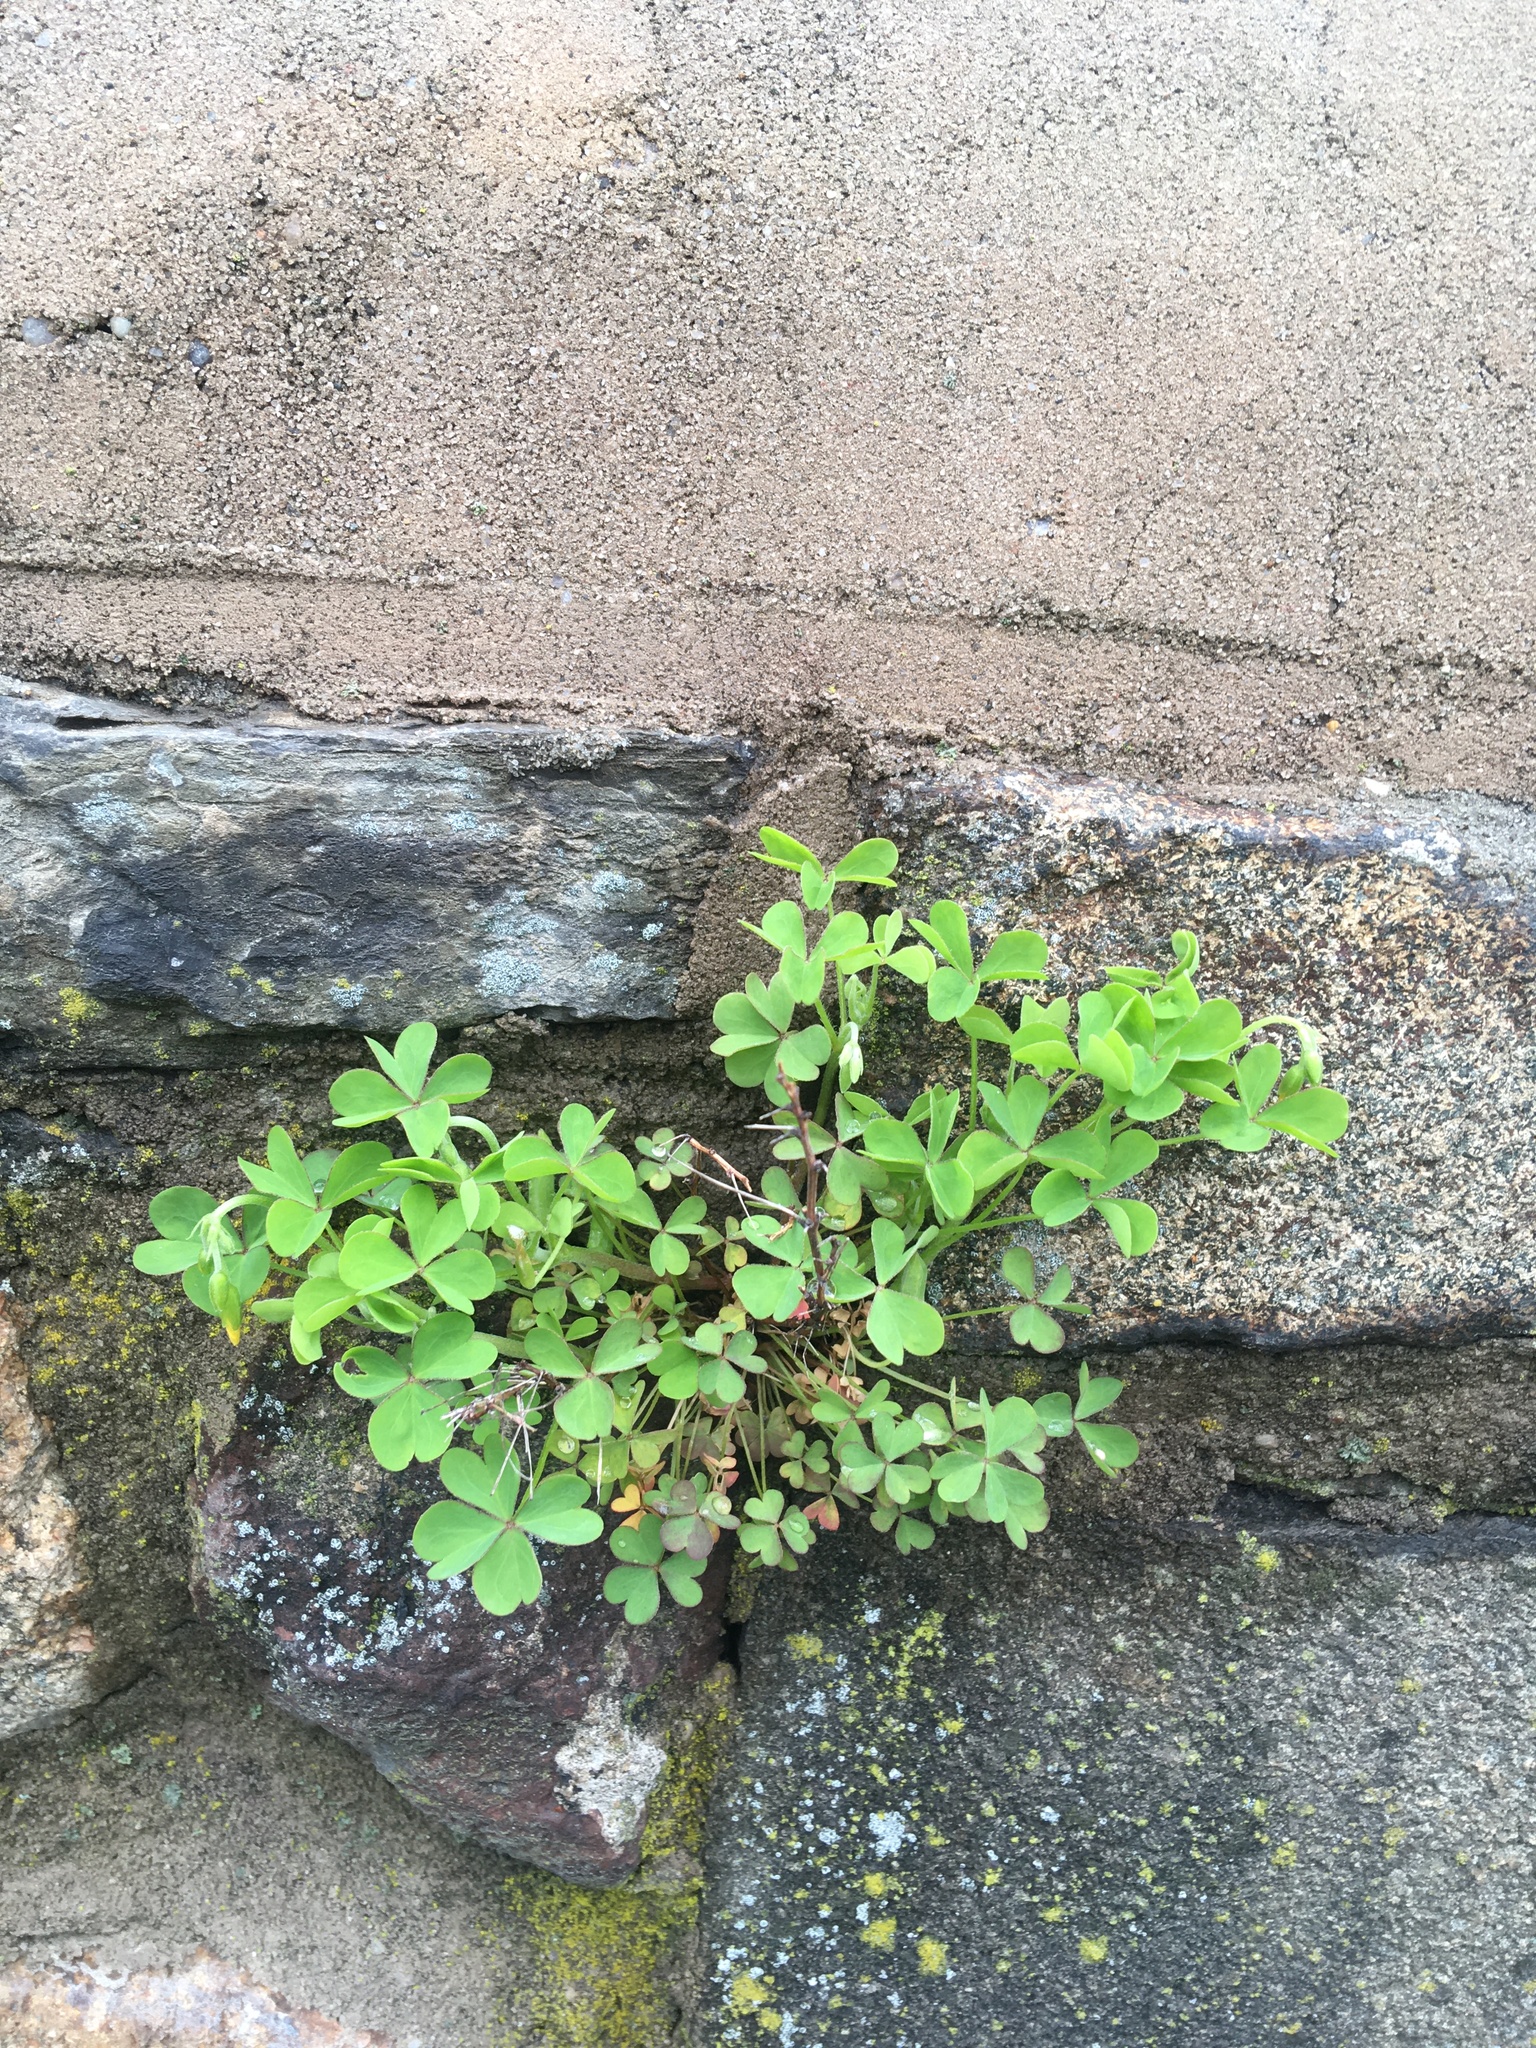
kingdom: Plantae
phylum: Tracheophyta
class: Magnoliopsida
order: Oxalidales
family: Oxalidaceae
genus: Oxalis
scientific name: Oxalis corniculata
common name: Procumbent yellow-sorrel
